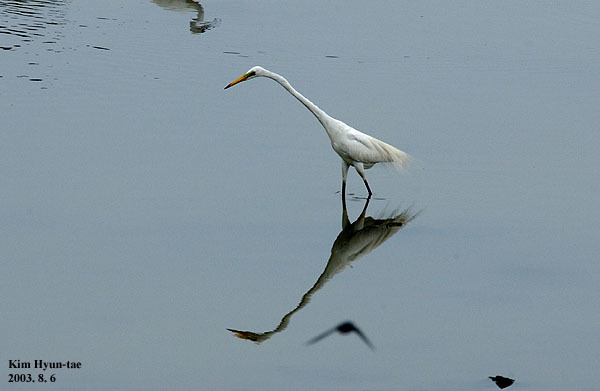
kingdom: Animalia
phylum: Chordata
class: Aves
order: Pelecaniformes
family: Ardeidae
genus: Ardea
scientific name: Ardea alba
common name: Great egret
